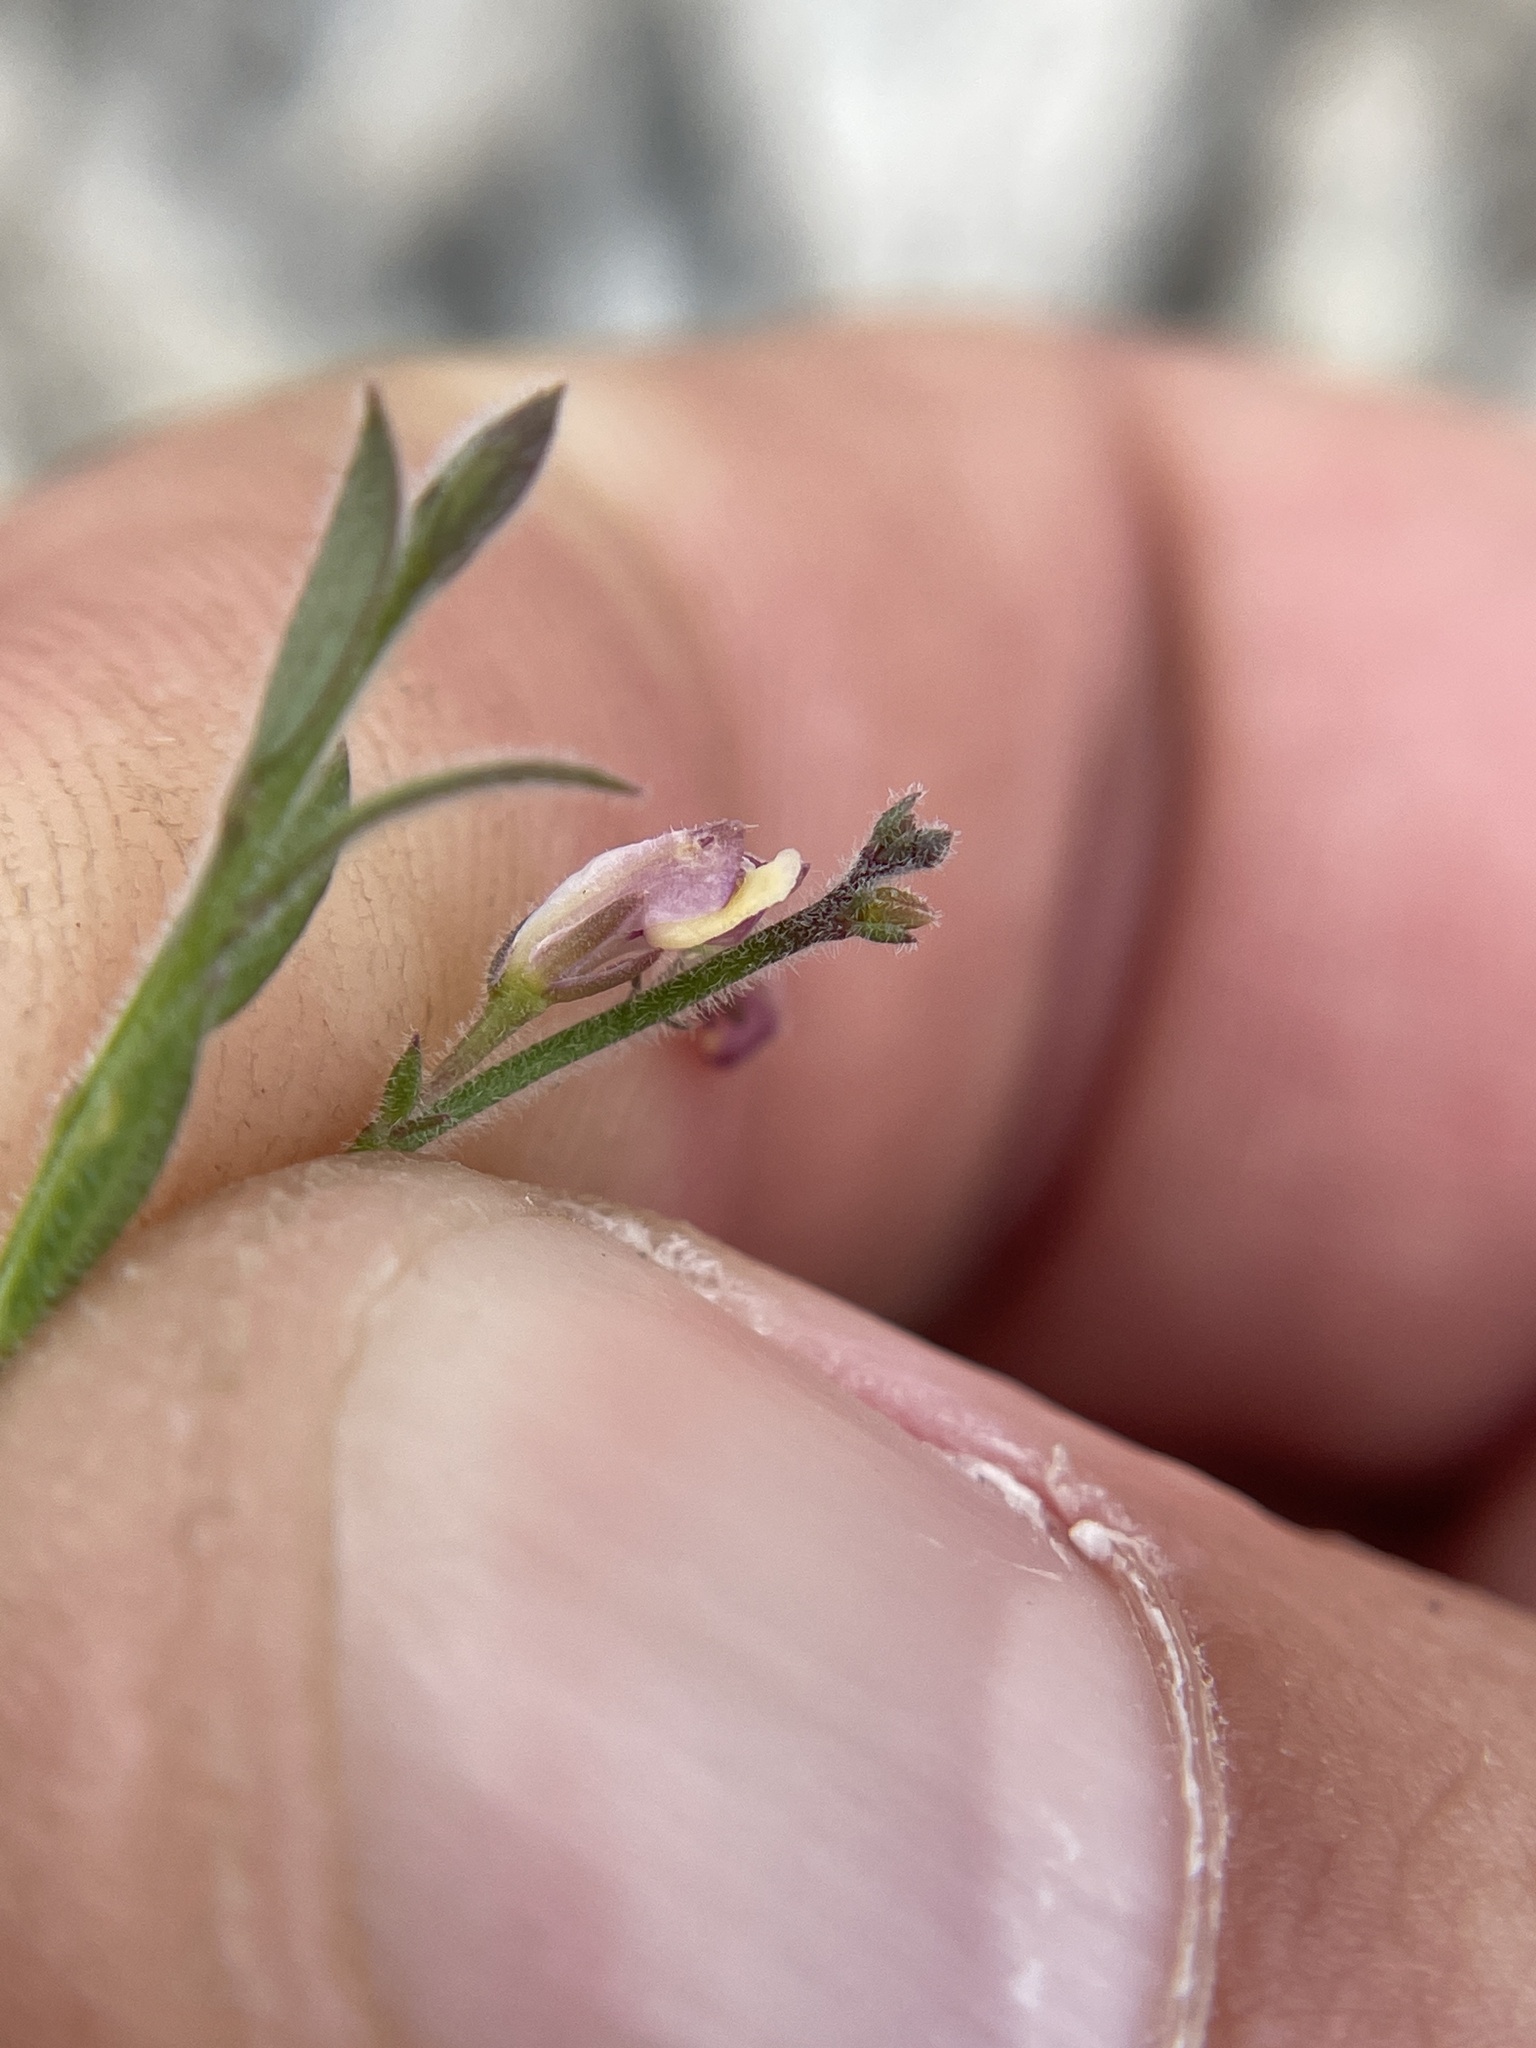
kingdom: Plantae
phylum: Tracheophyta
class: Magnoliopsida
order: Fabales
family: Polygalaceae
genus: Rhinotropis
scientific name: Rhinotropis lindheimeri
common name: Shrubby milkwort
